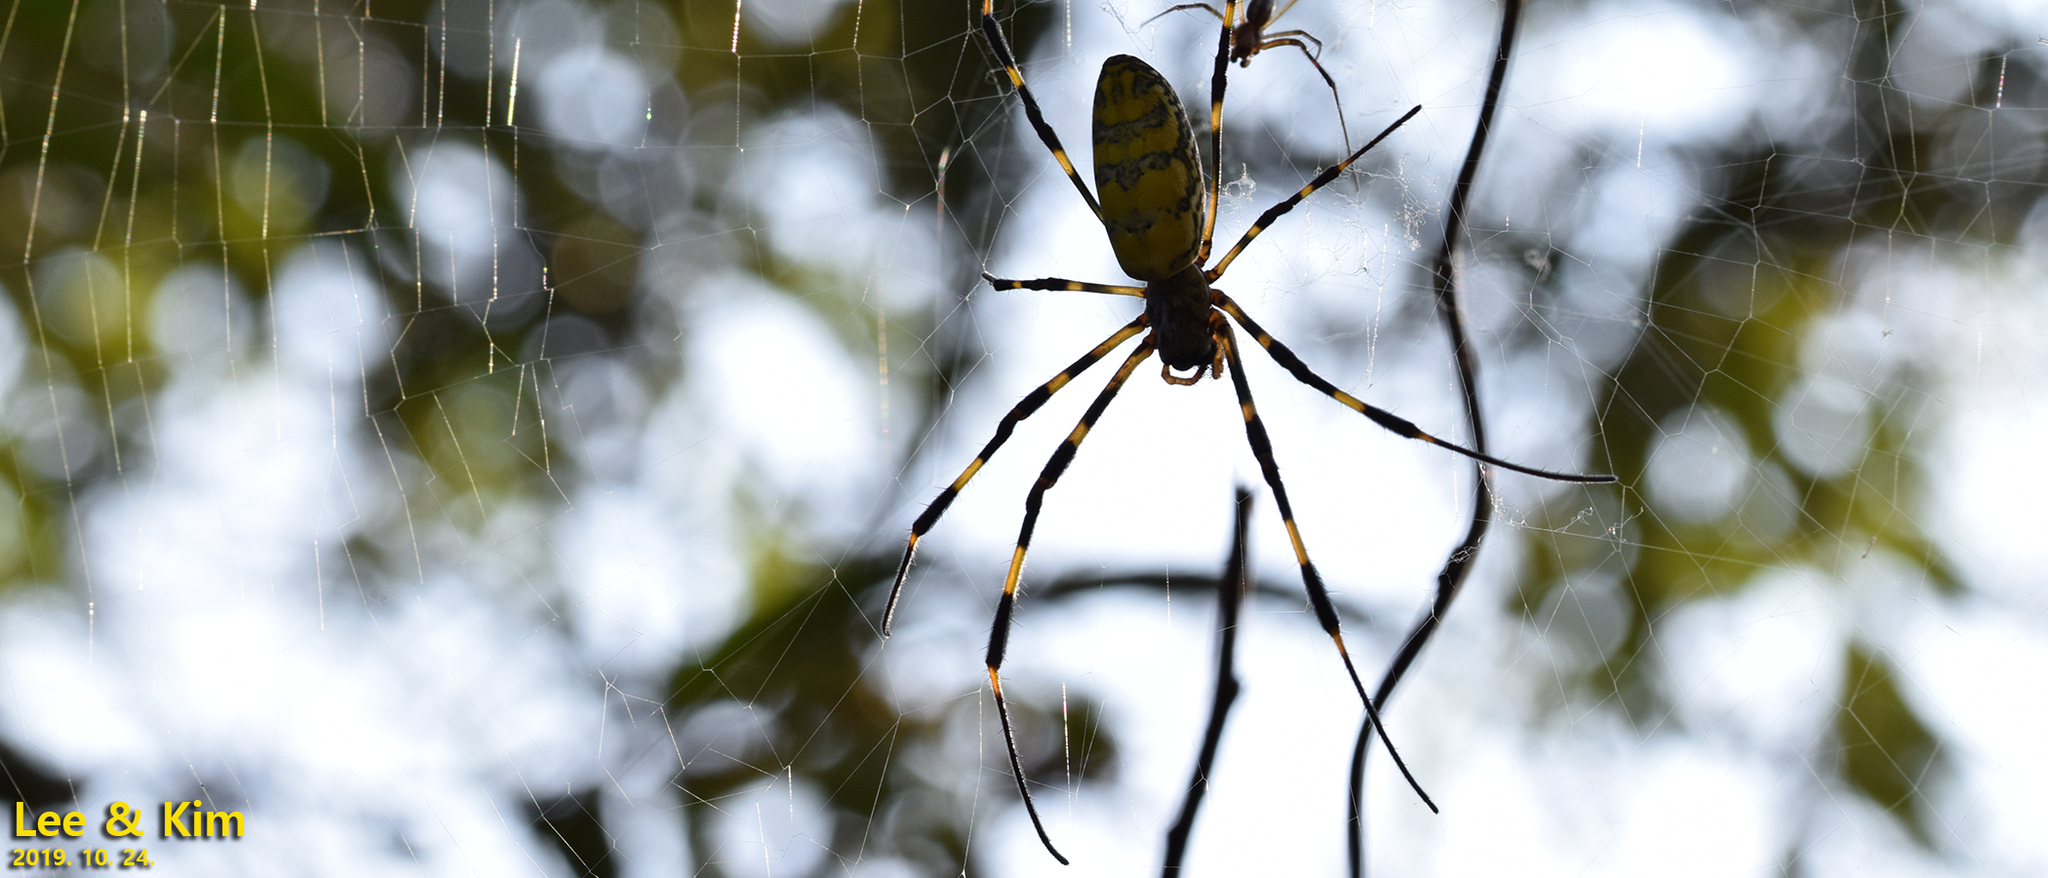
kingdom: Animalia
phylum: Arthropoda
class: Arachnida
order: Araneae
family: Araneidae
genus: Trichonephila
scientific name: Trichonephila clavata
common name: Jorō spider
